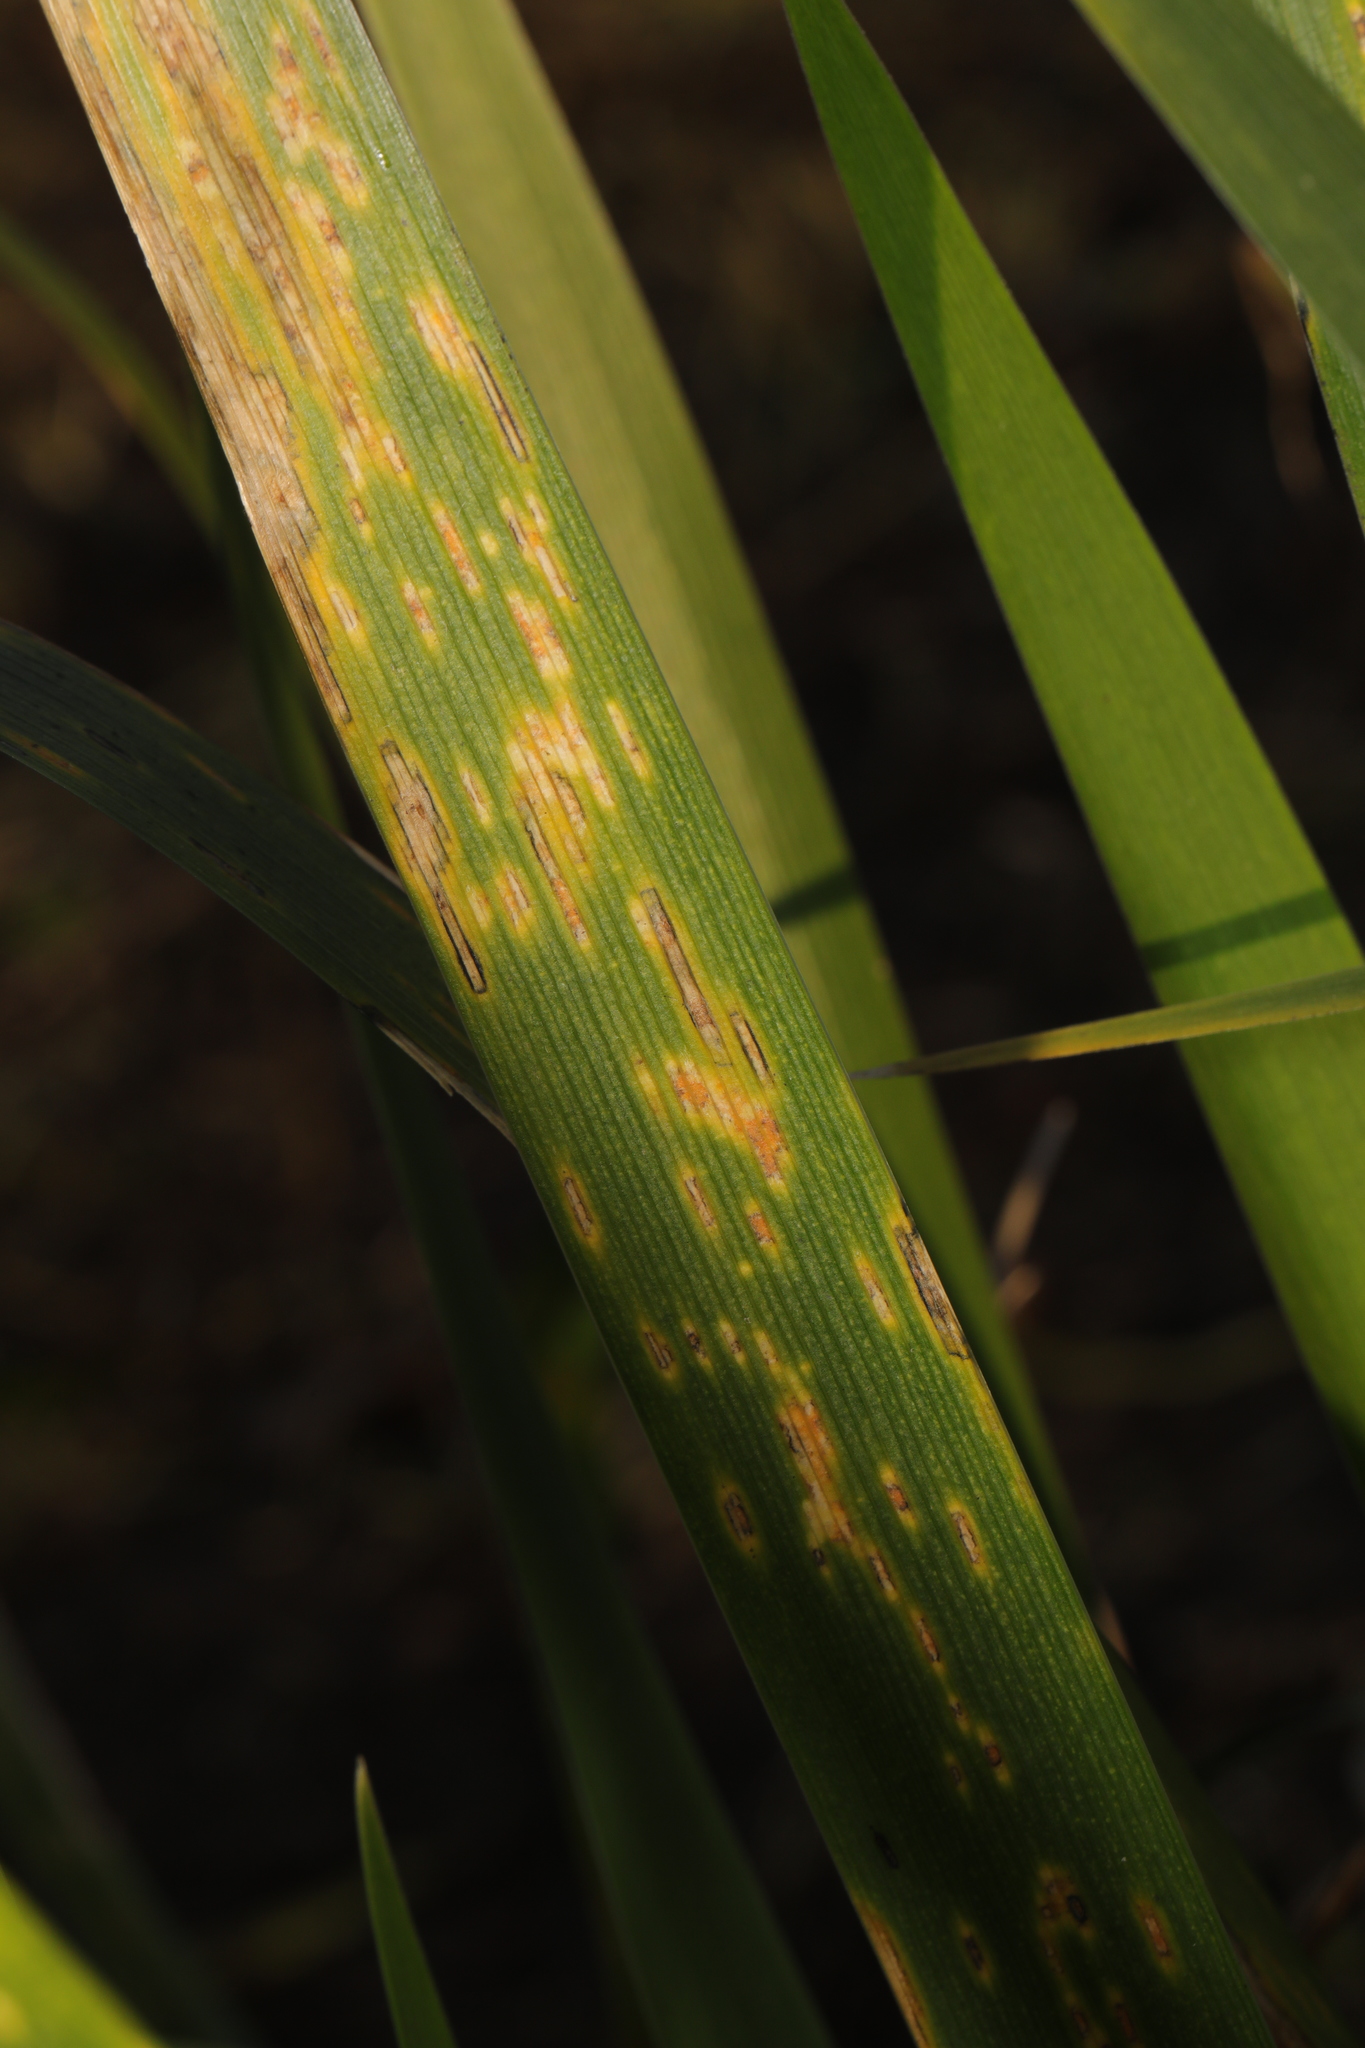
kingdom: Fungi
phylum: Basidiomycota
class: Pucciniomycetes
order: Pucciniales
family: Pucciniaceae
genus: Puccinia
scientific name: Puccinia iridis
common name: Iris rust
